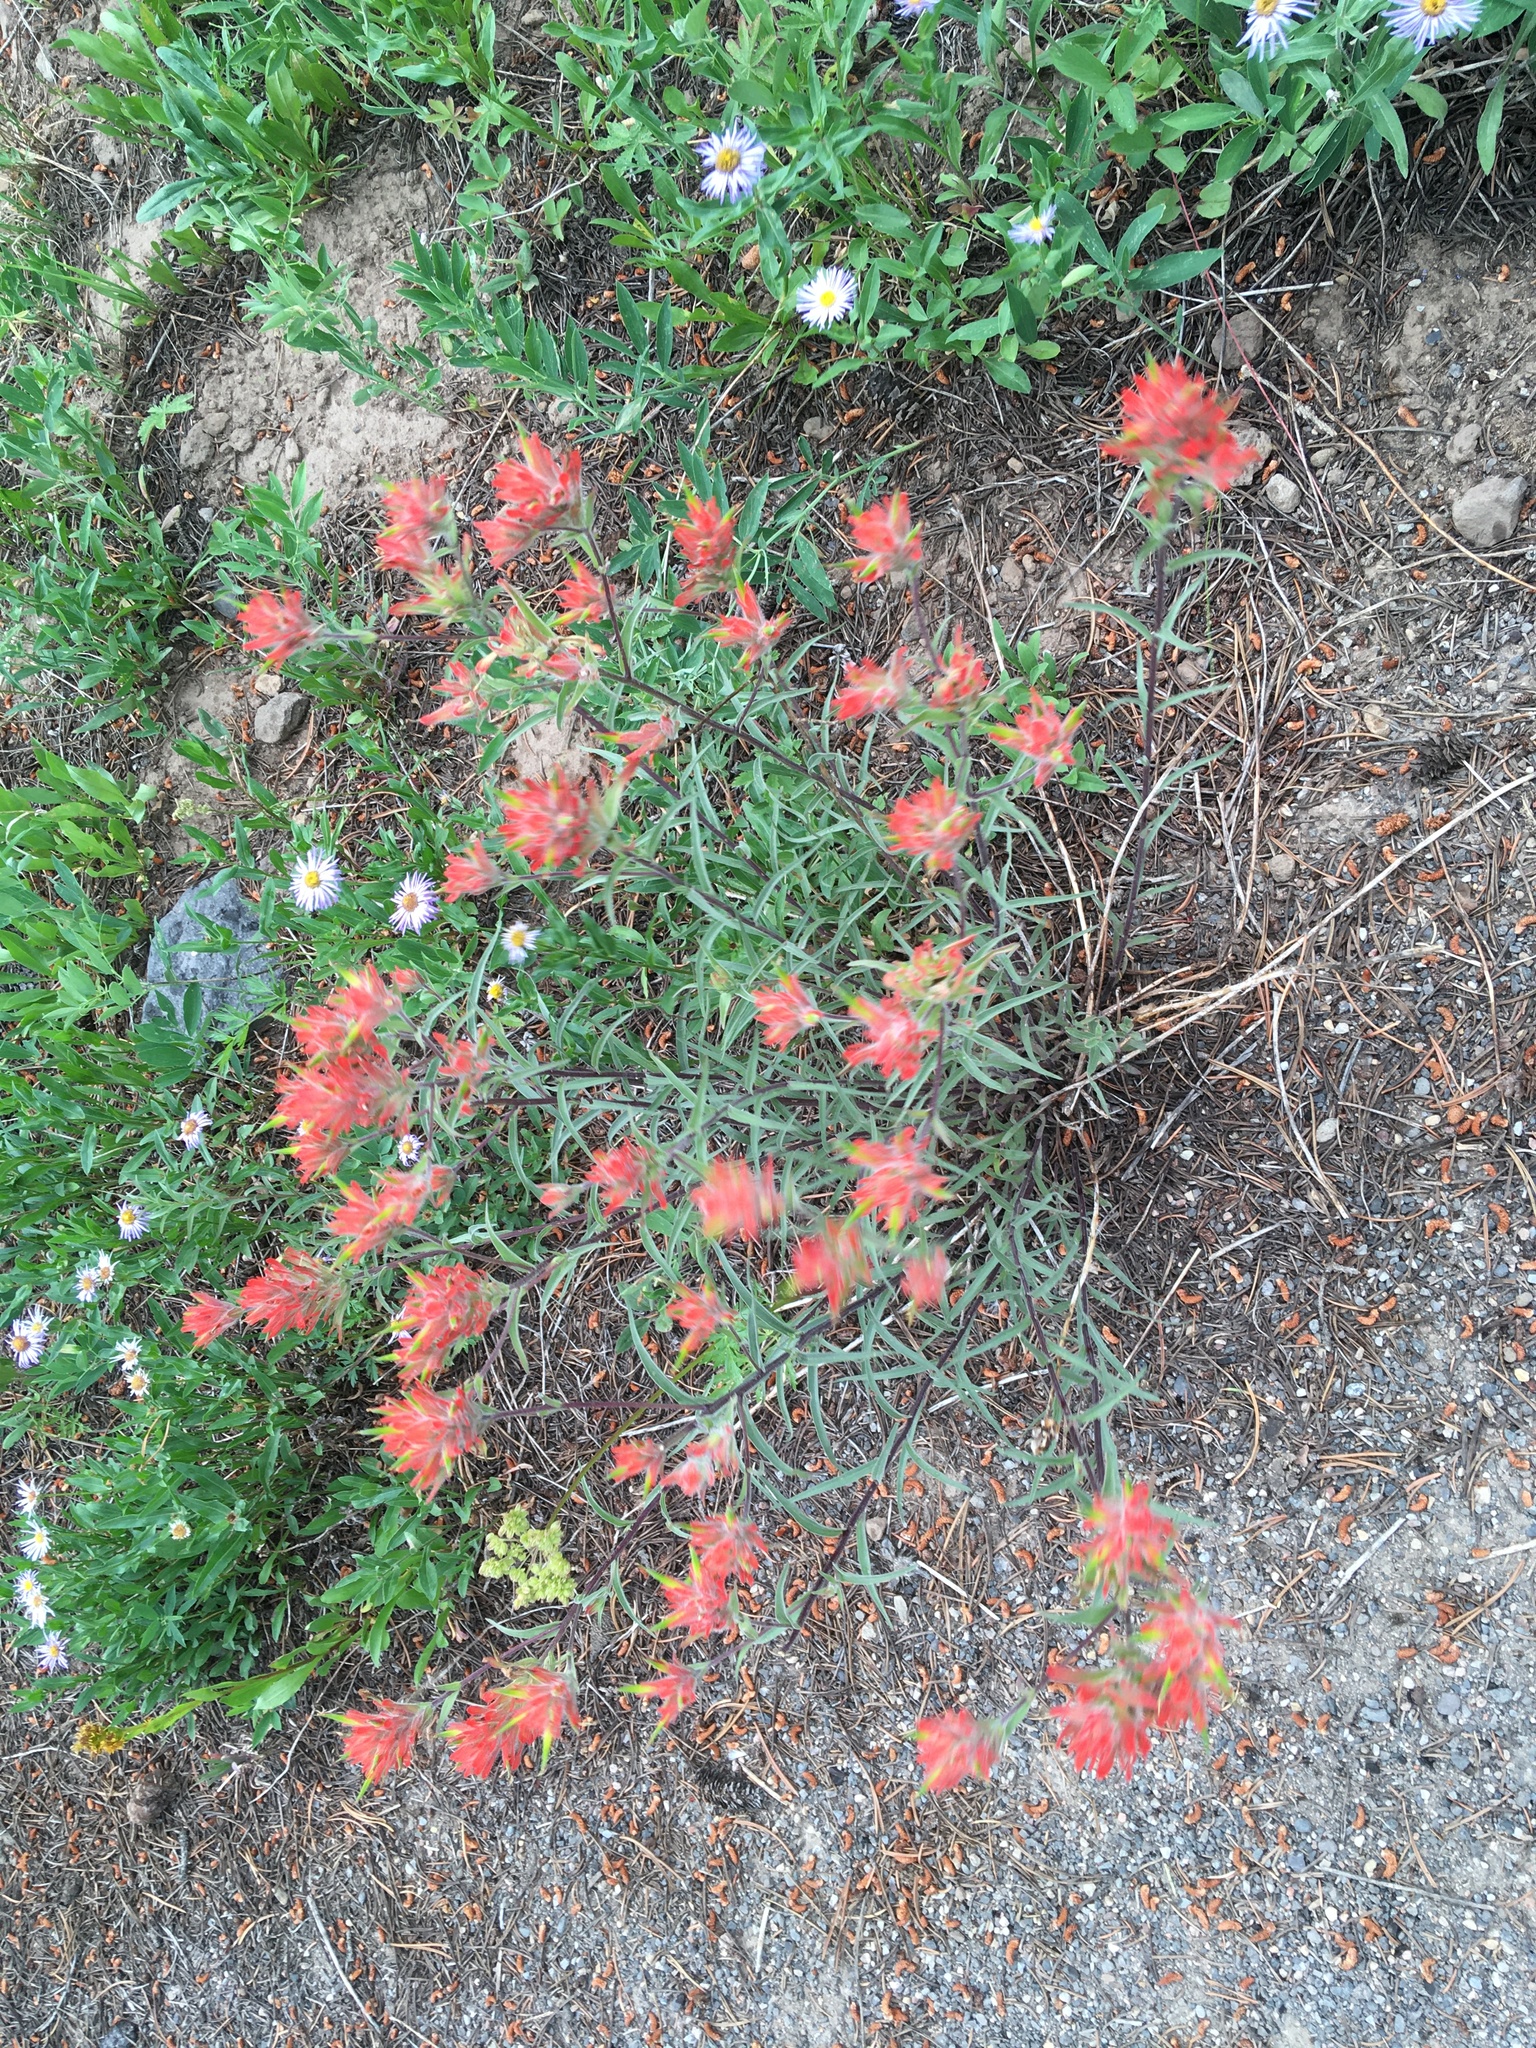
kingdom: Plantae
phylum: Tracheophyta
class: Magnoliopsida
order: Lamiales
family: Orobanchaceae
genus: Castilleja
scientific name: Castilleja miniata
